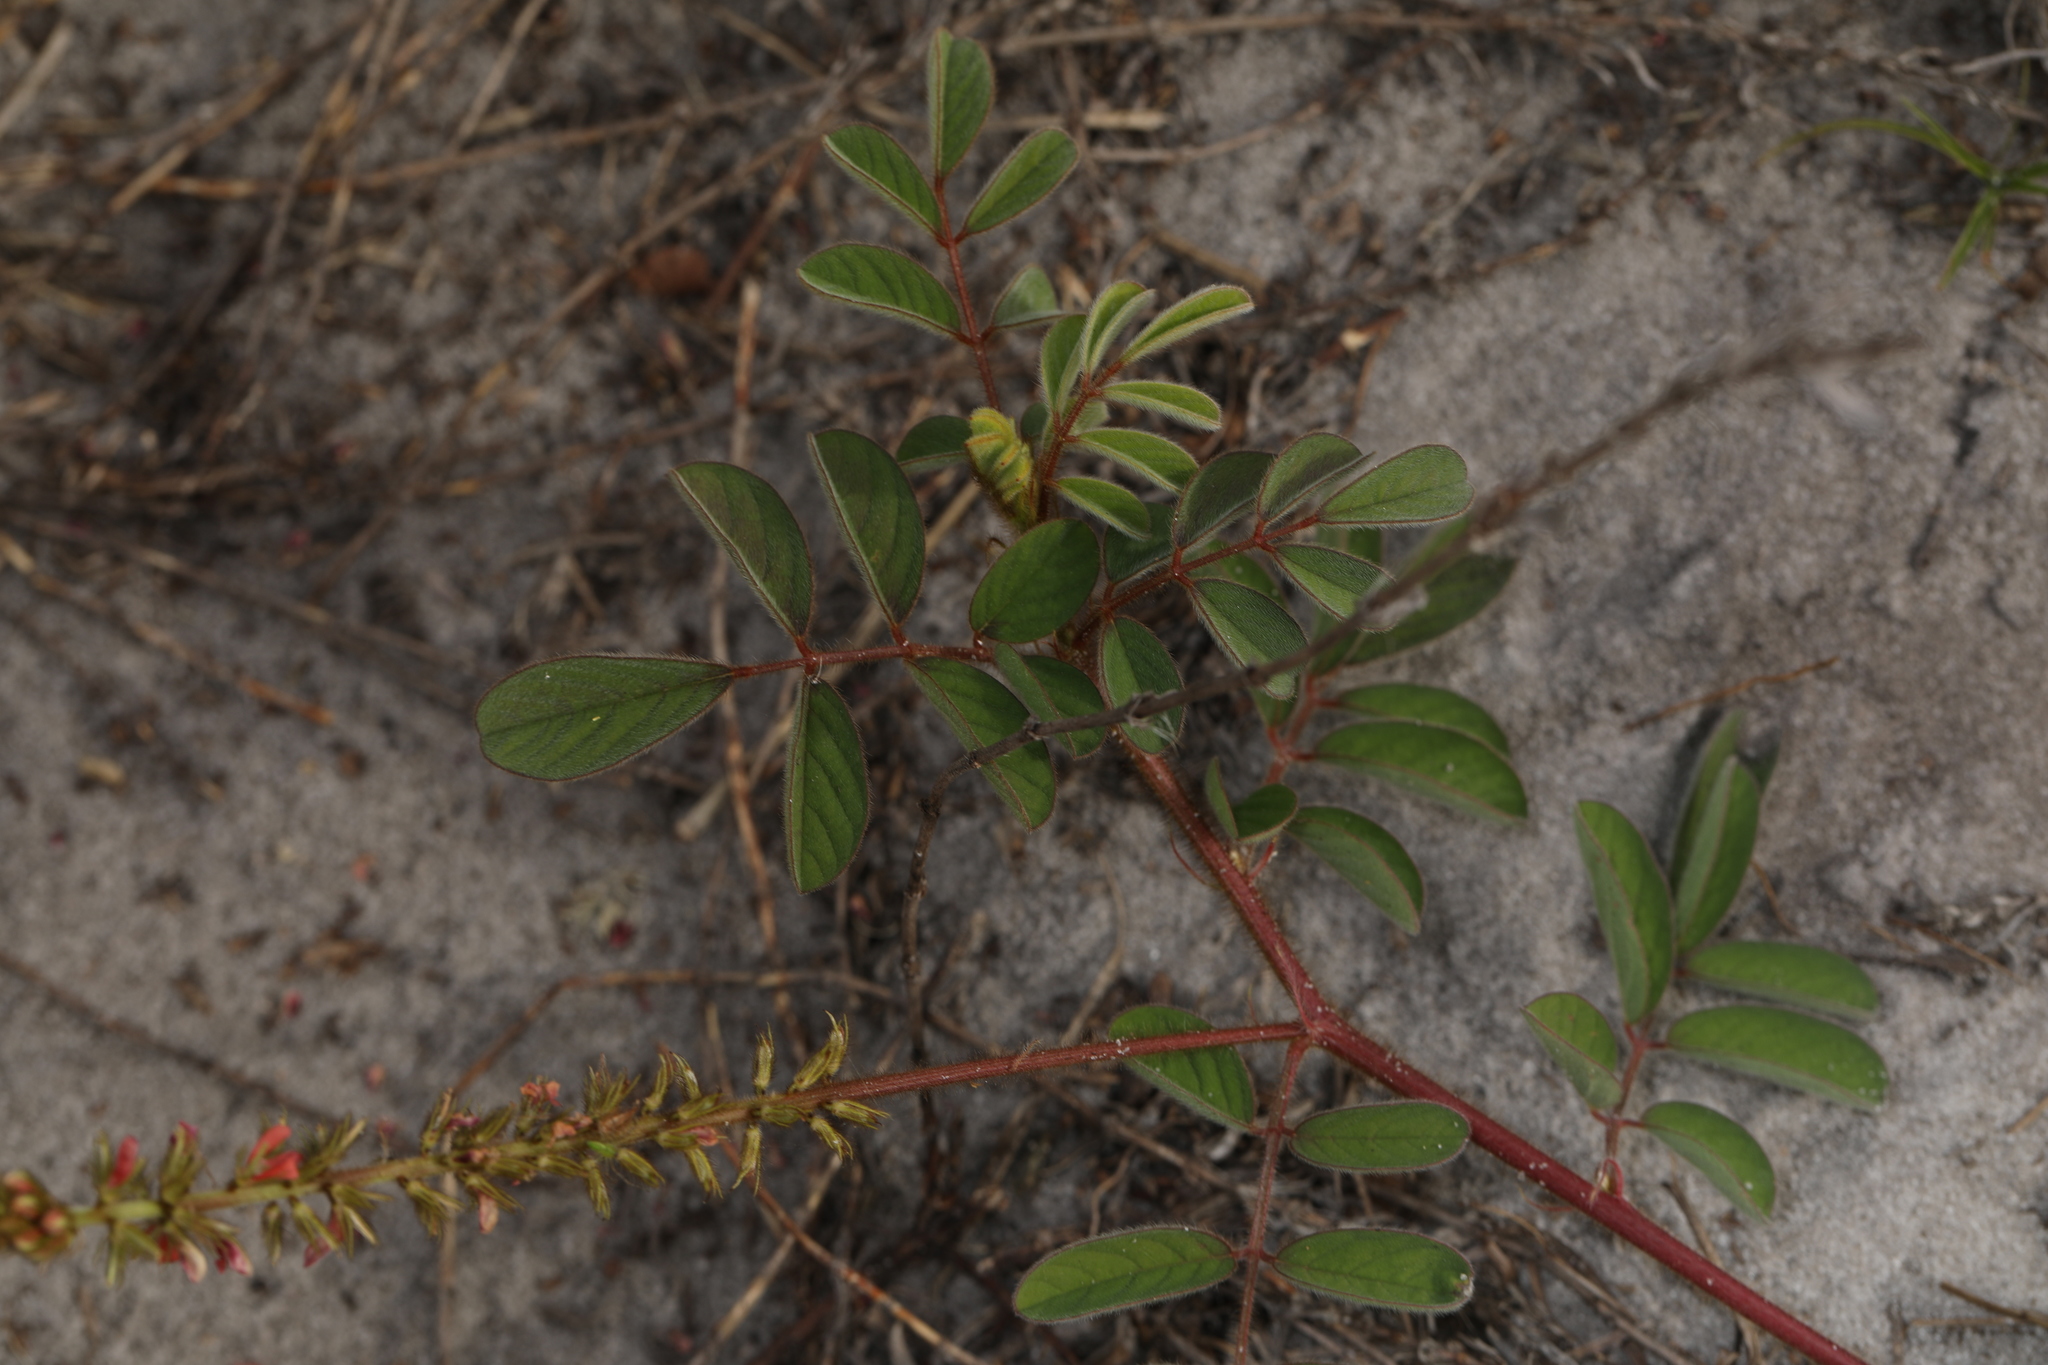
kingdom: Plantae
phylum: Tracheophyta
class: Magnoliopsida
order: Fabales
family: Fabaceae
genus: Indigofera
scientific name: Indigofera hirsuta
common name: Hairy indigo
